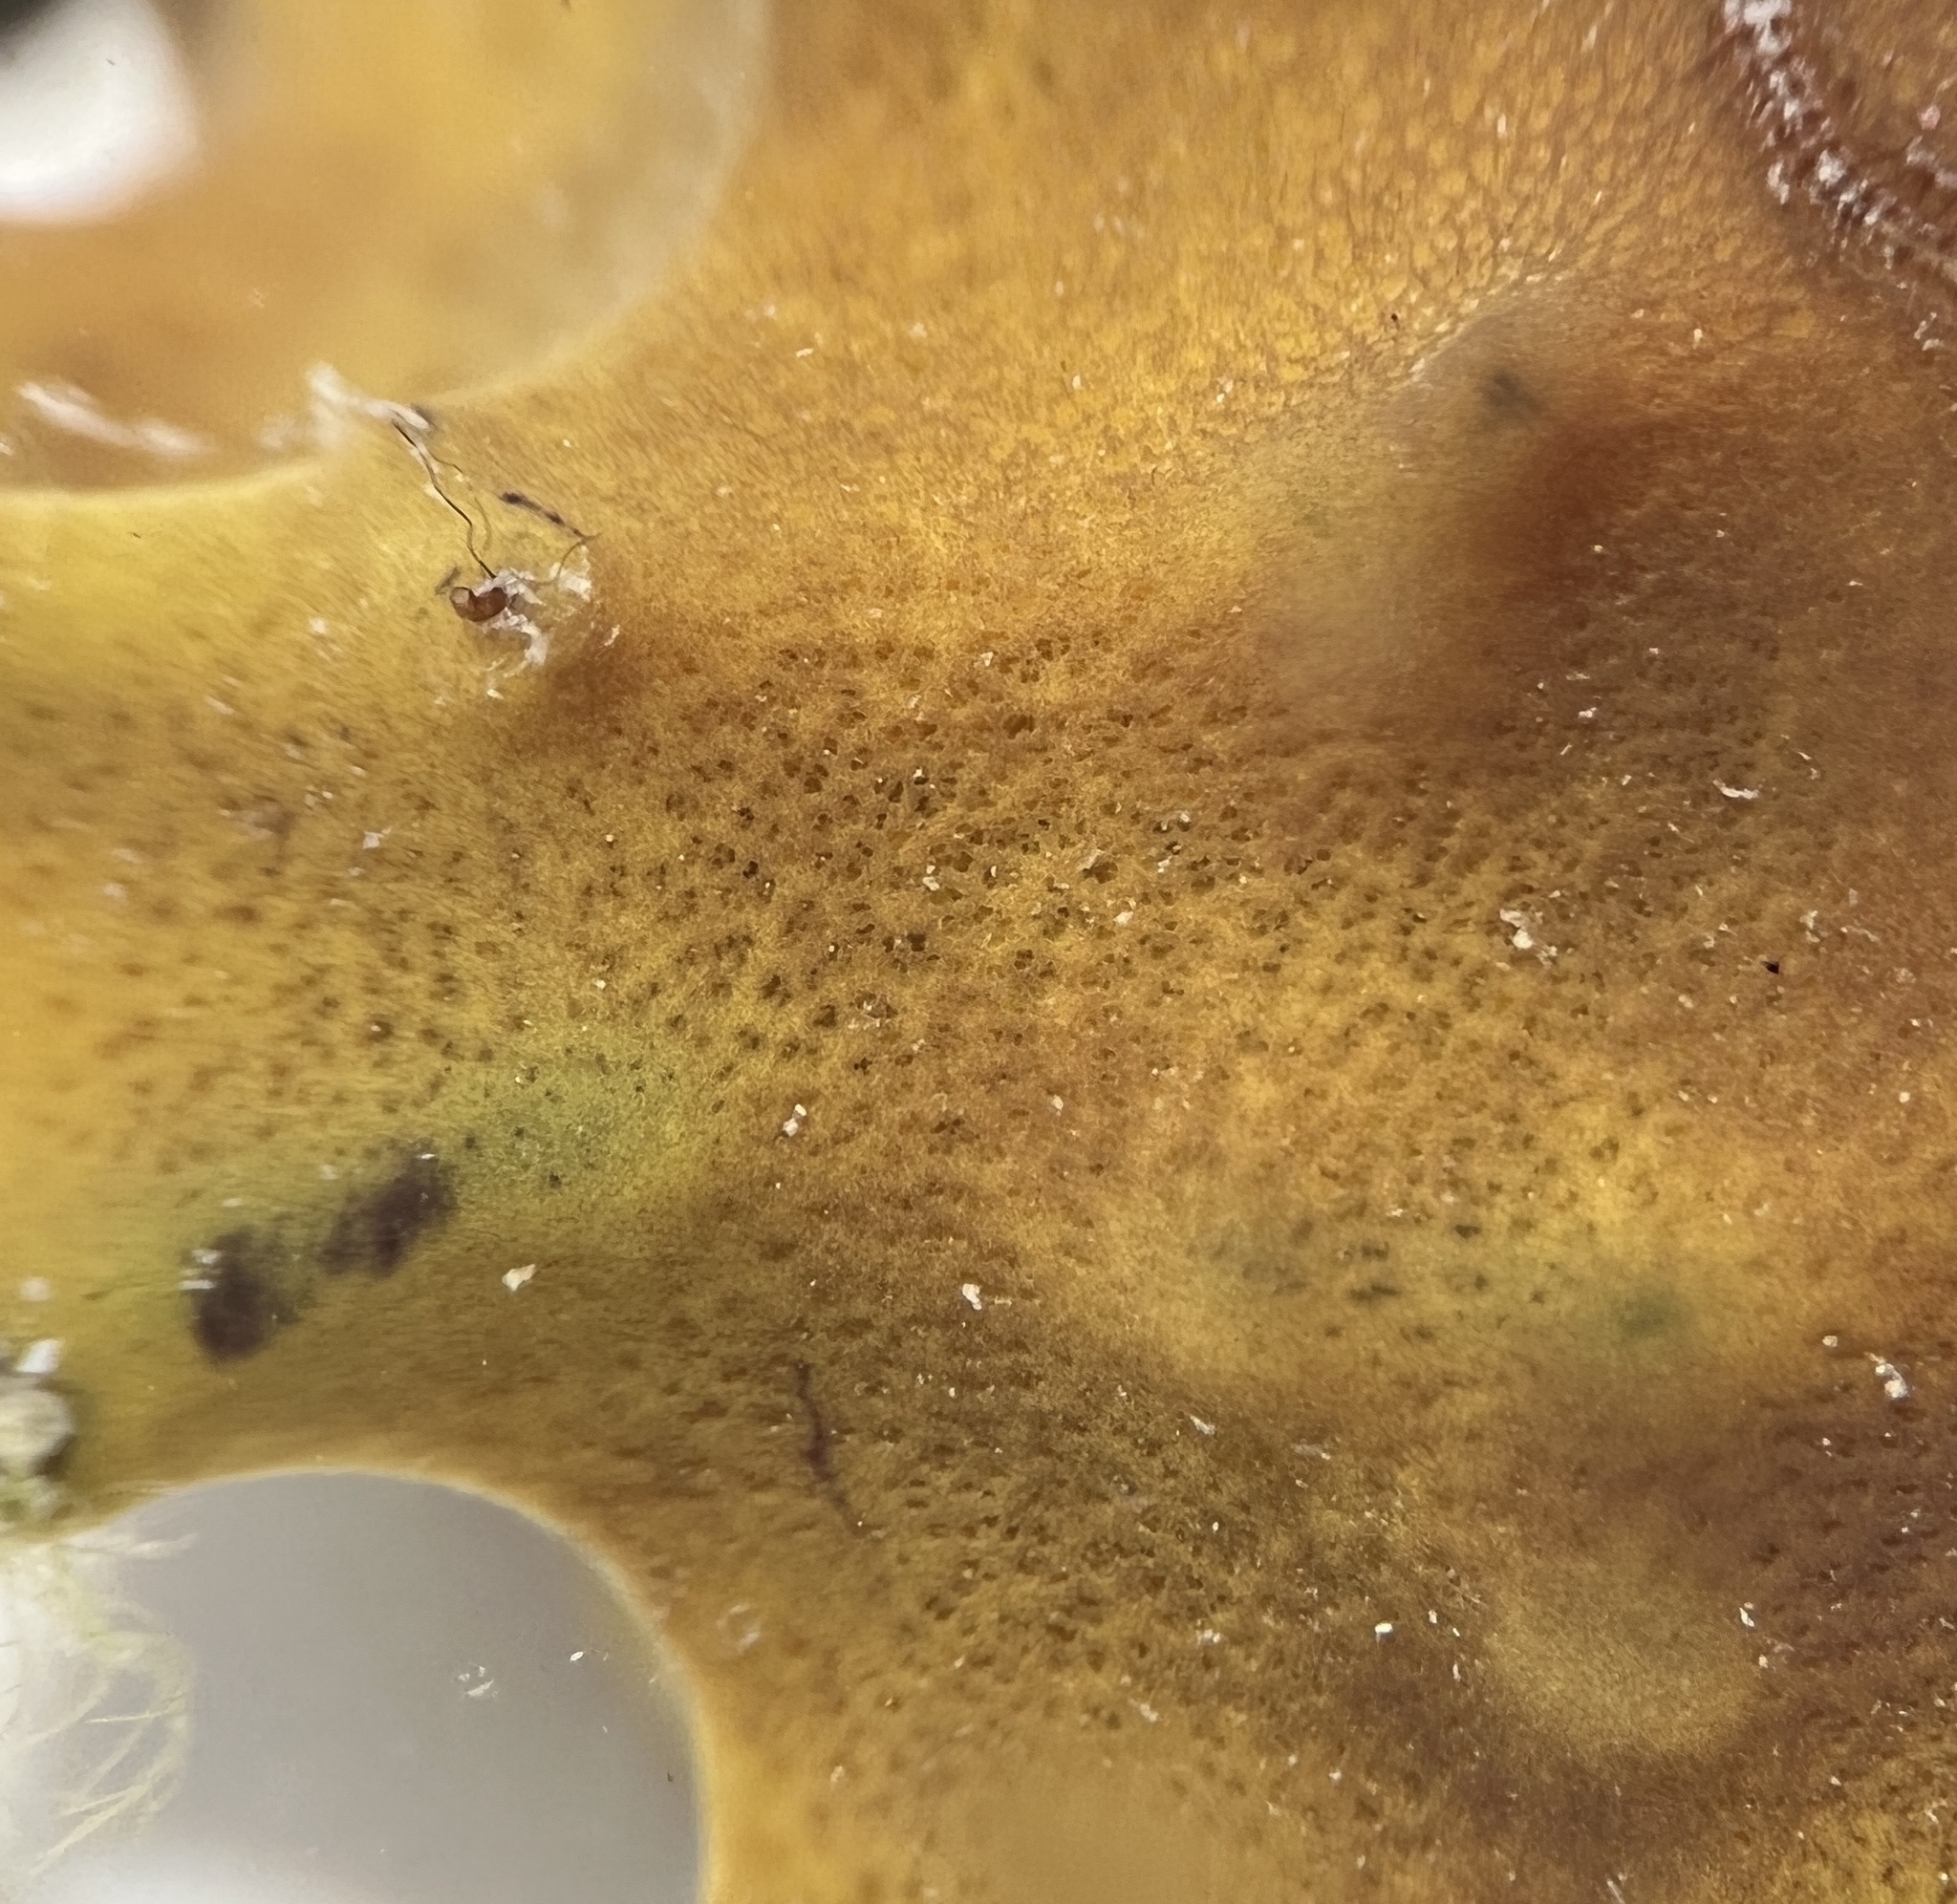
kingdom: Animalia
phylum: Porifera
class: Demospongiae
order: Verongiida
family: Aplysinidae
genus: Aiolochroia
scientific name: Aiolochroia crassa
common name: Branching tube sponge
